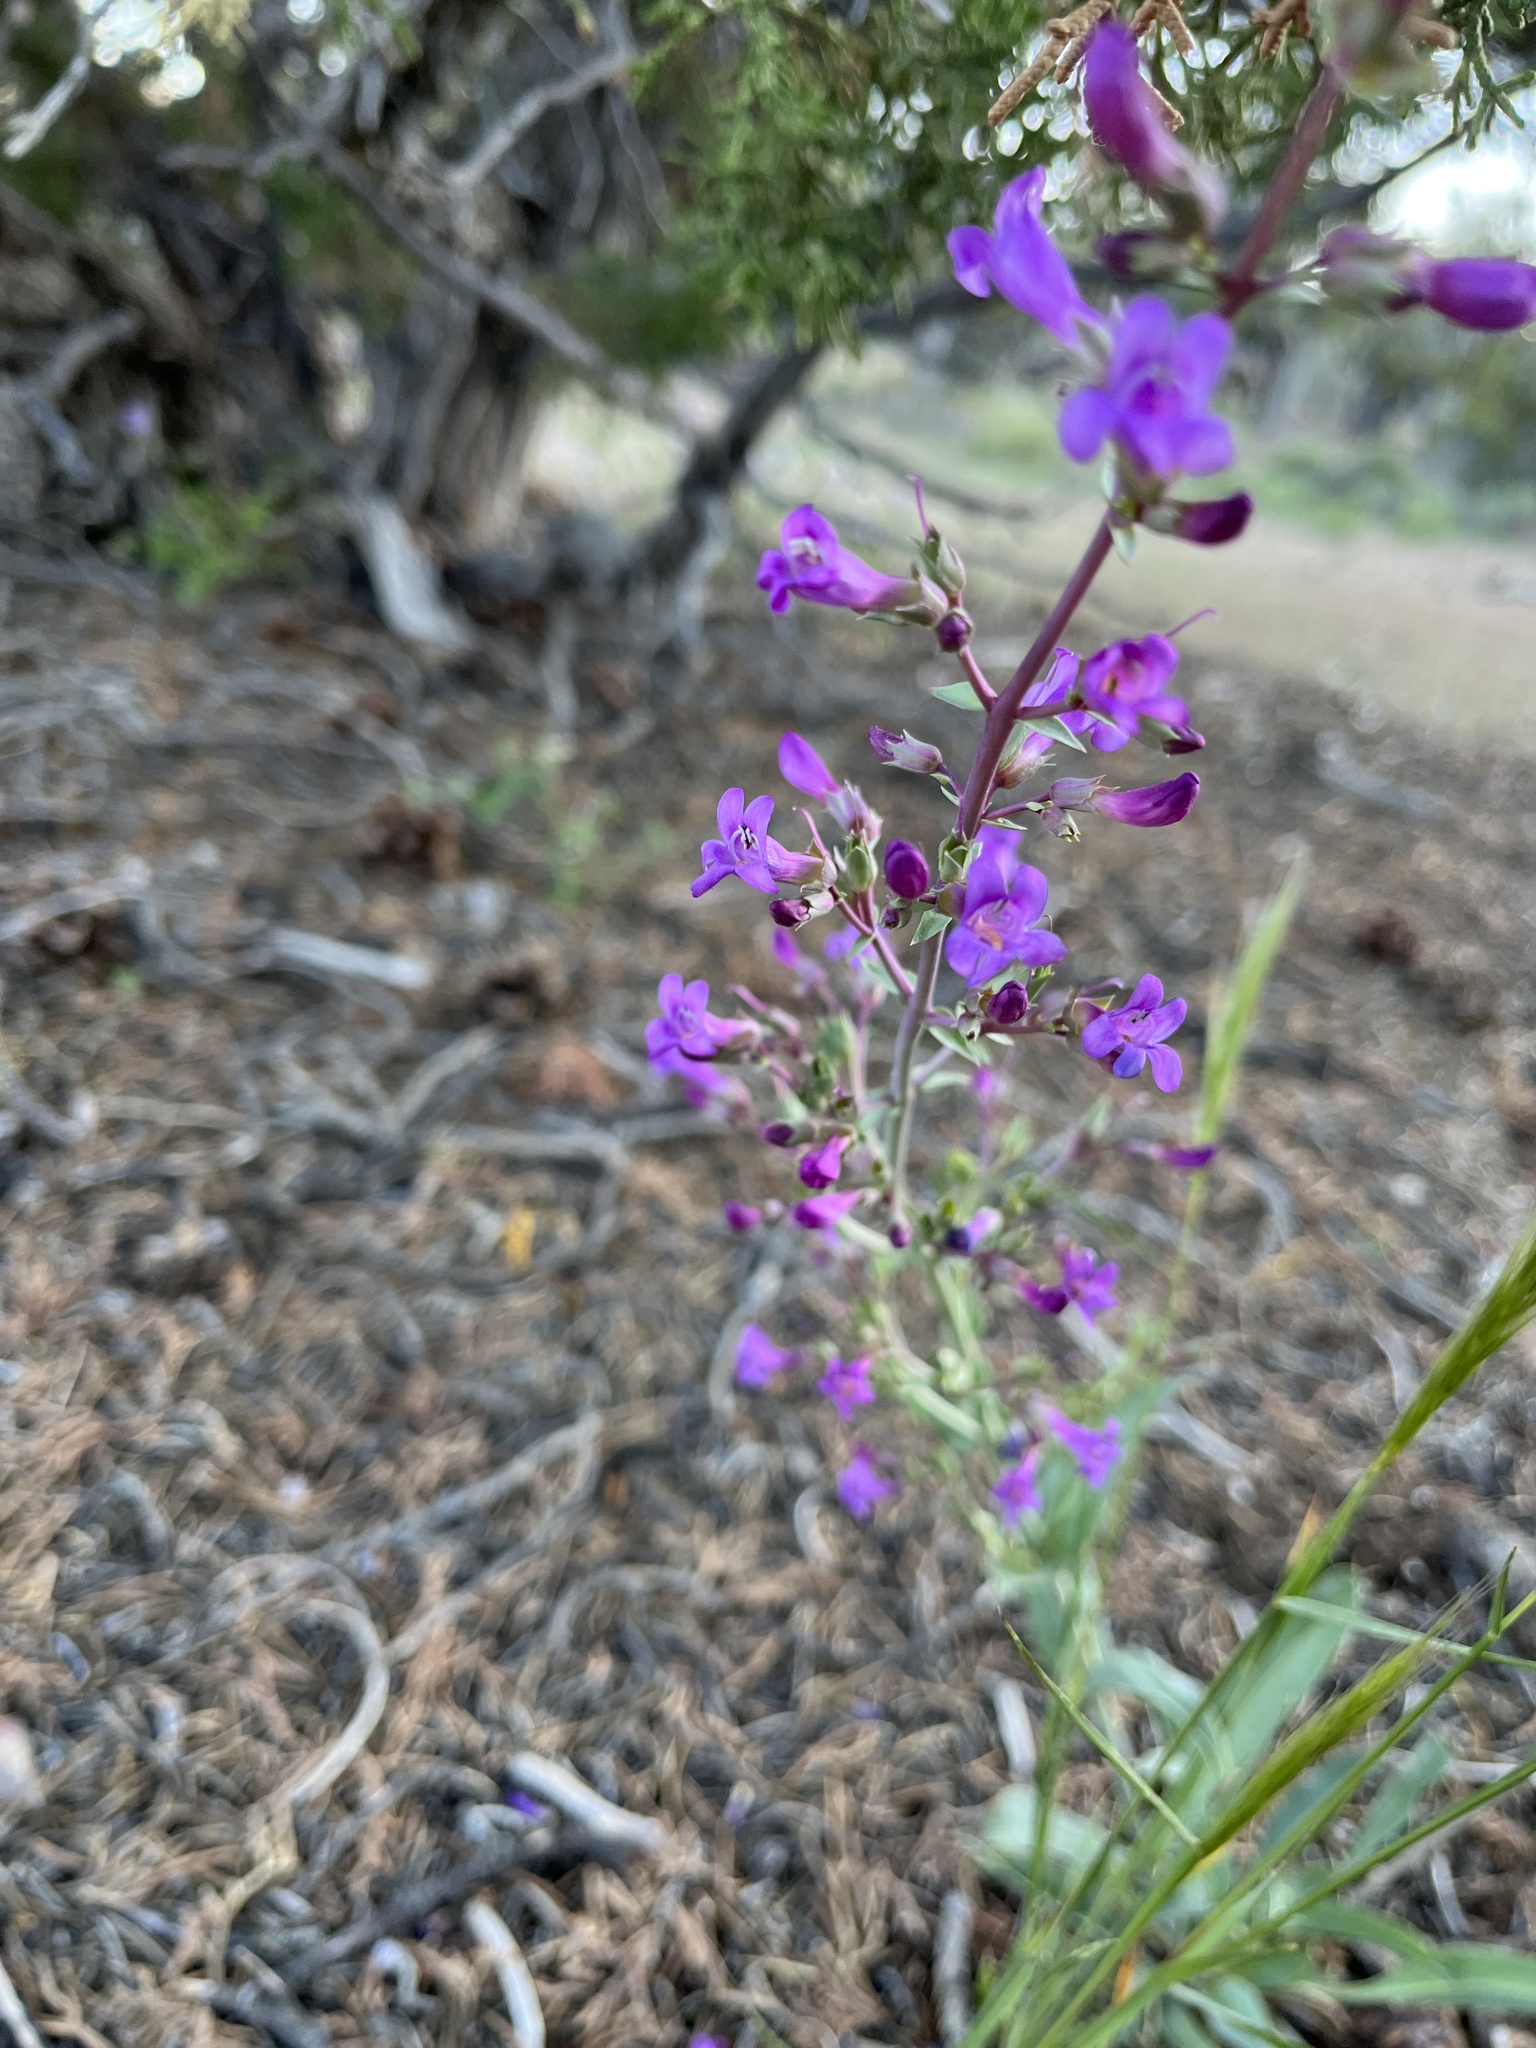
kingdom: Plantae
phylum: Tracheophyta
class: Magnoliopsida
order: Lamiales
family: Plantaginaceae
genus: Penstemon
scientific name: Penstemon patens
